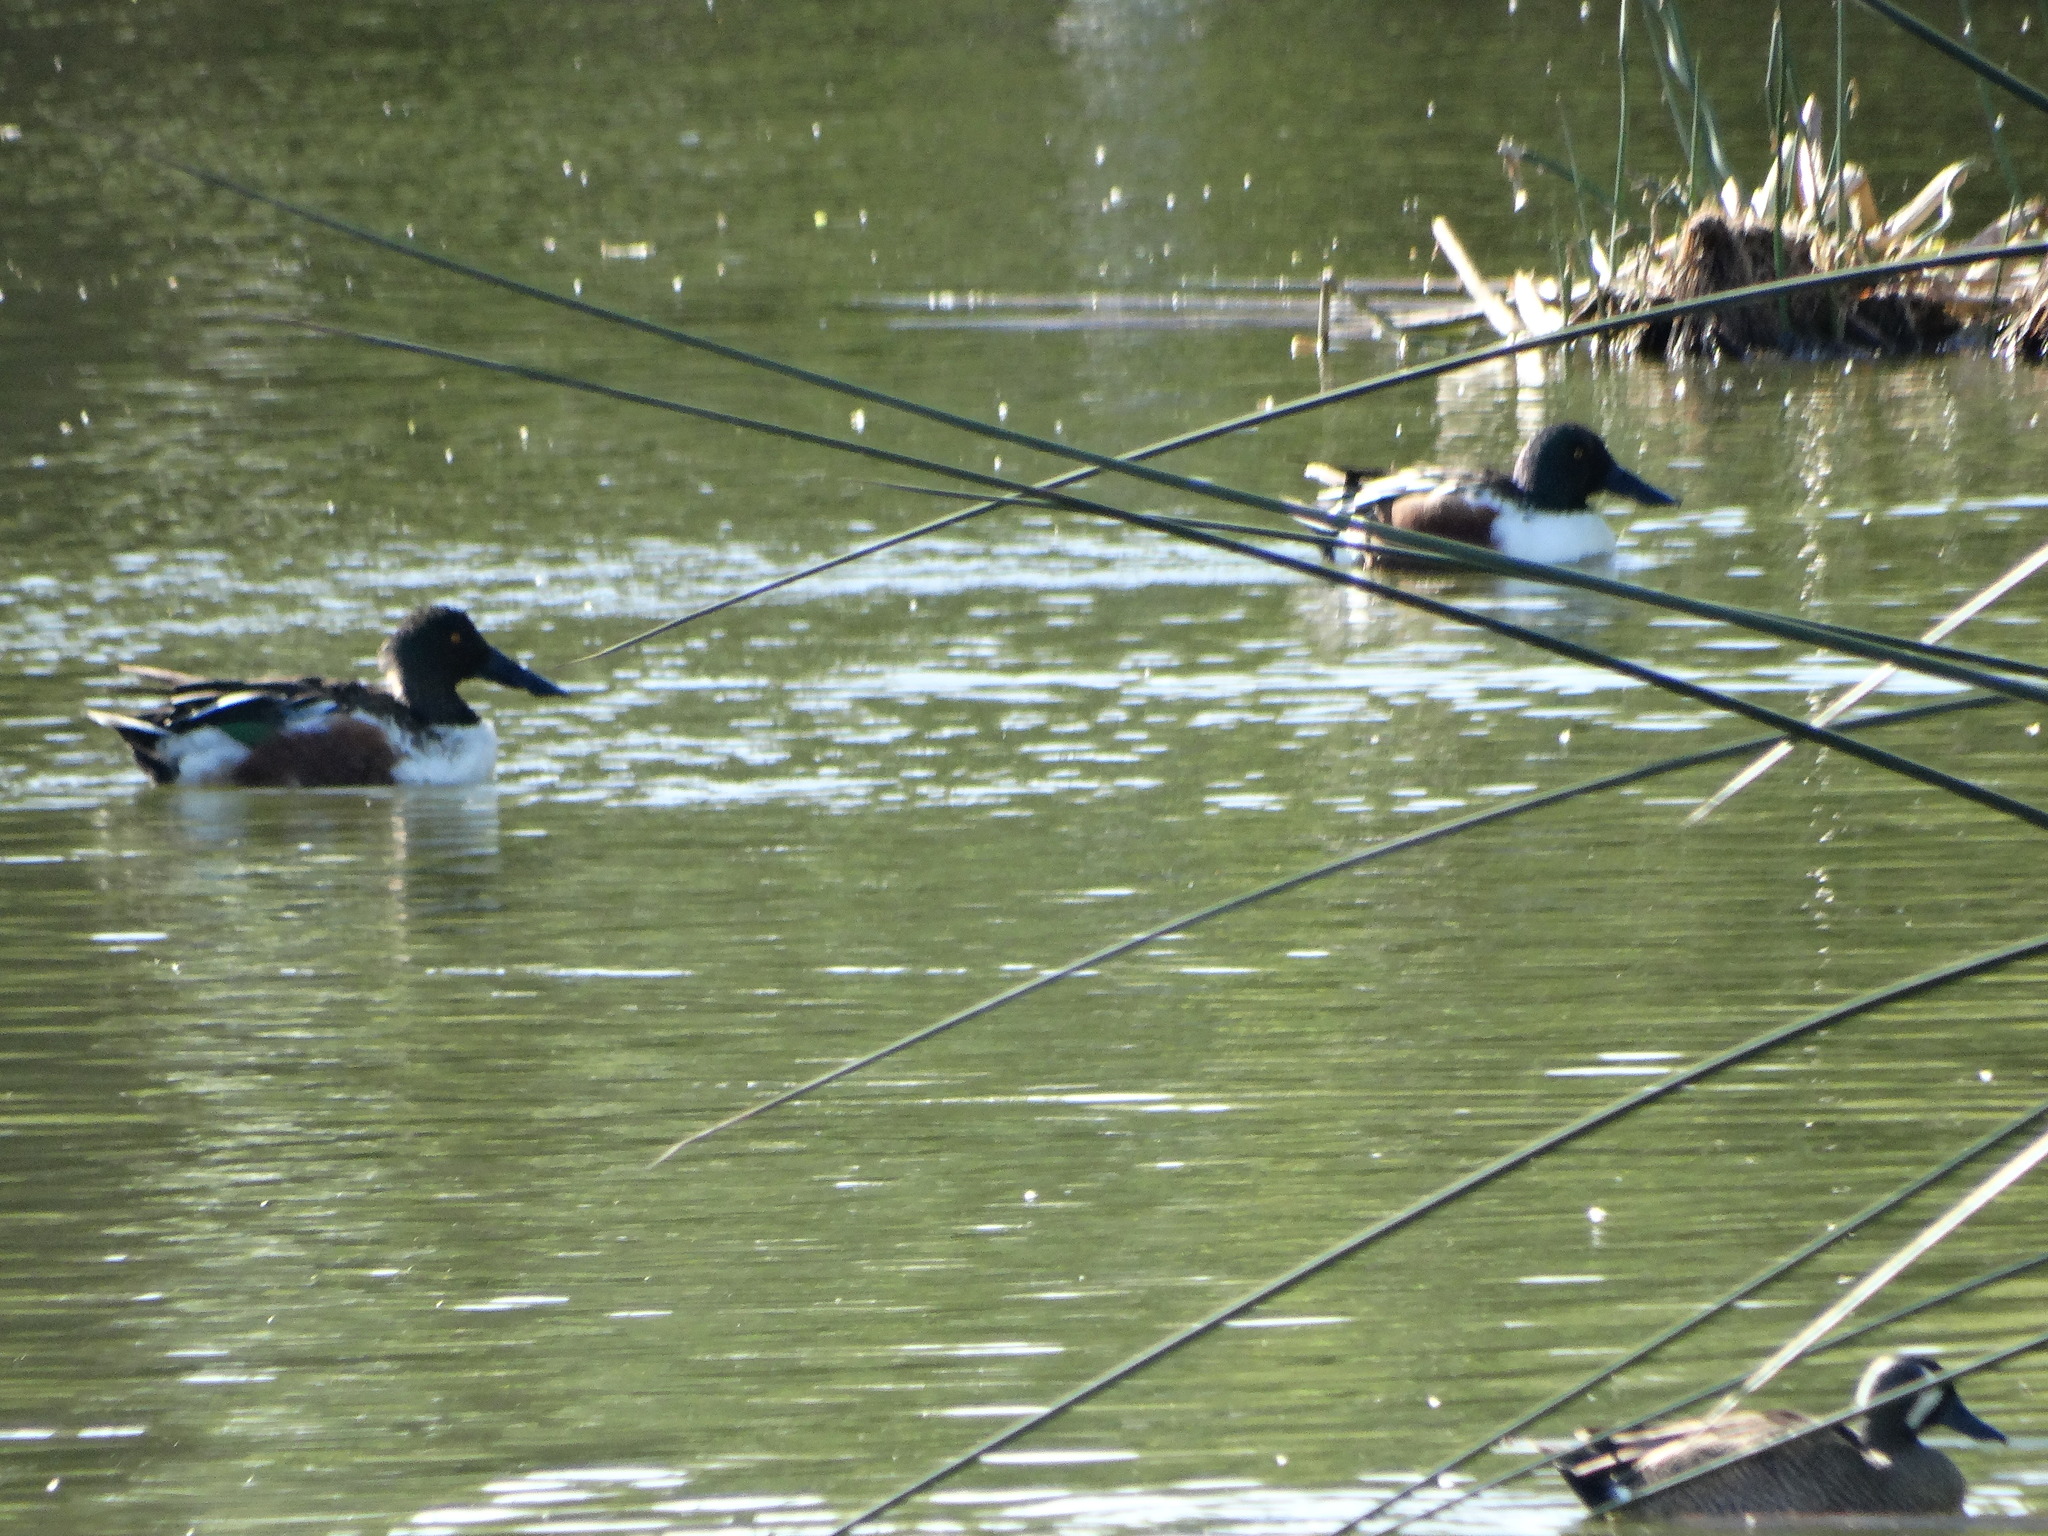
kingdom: Animalia
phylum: Chordata
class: Aves
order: Anseriformes
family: Anatidae
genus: Spatula
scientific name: Spatula clypeata
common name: Northern shoveler
